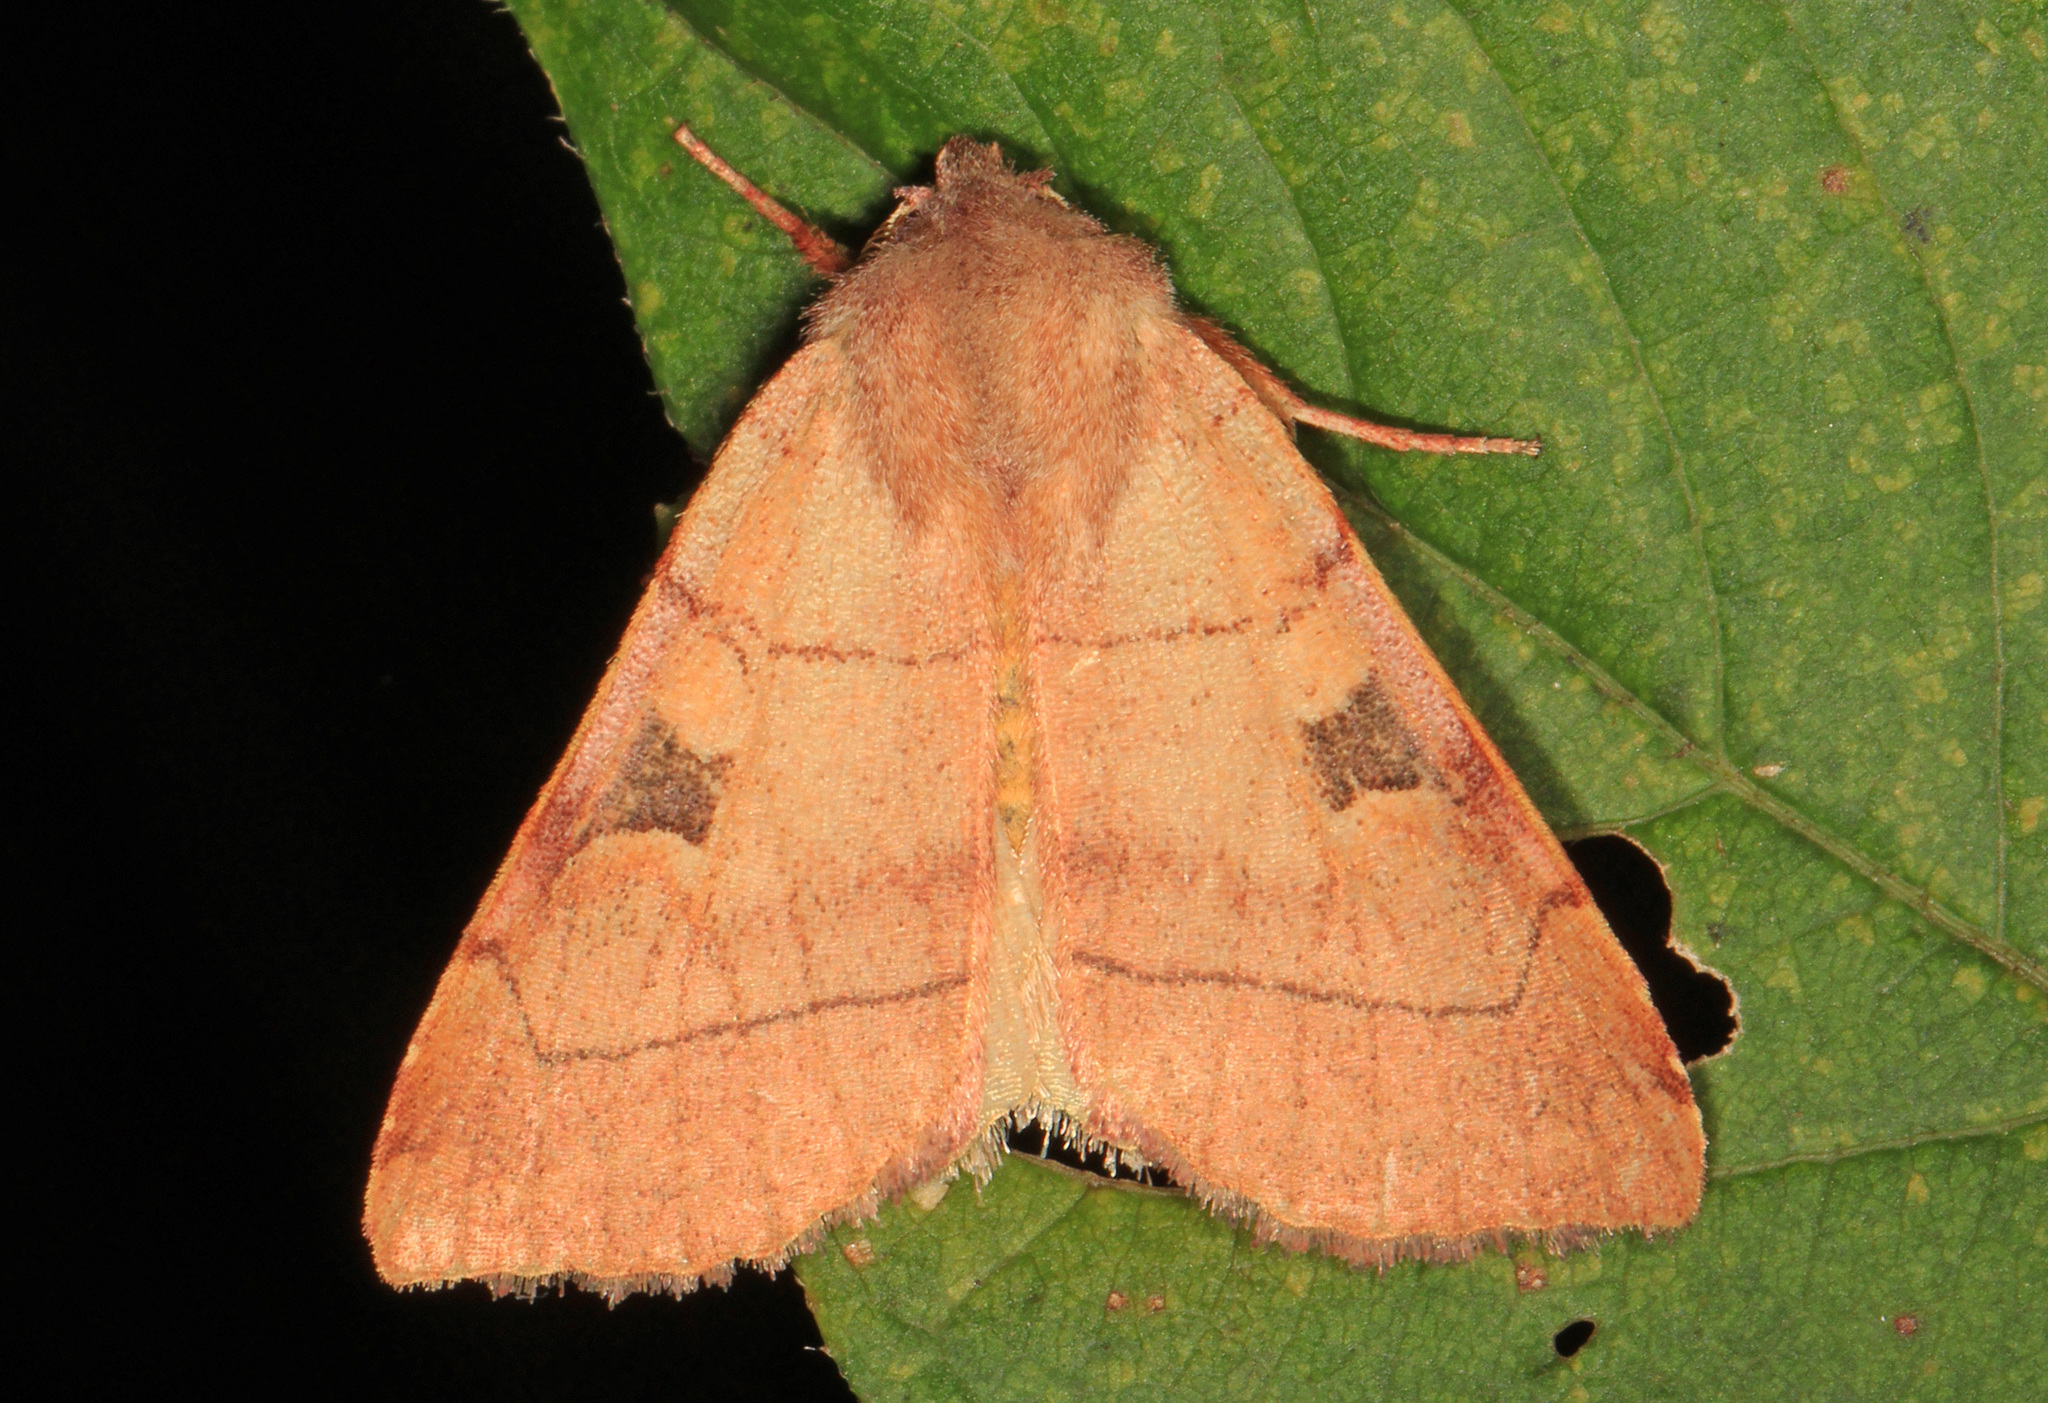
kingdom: Animalia
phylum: Arthropoda
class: Insecta
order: Lepidoptera
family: Noctuidae
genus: Choephora
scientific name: Choephora fungorum
